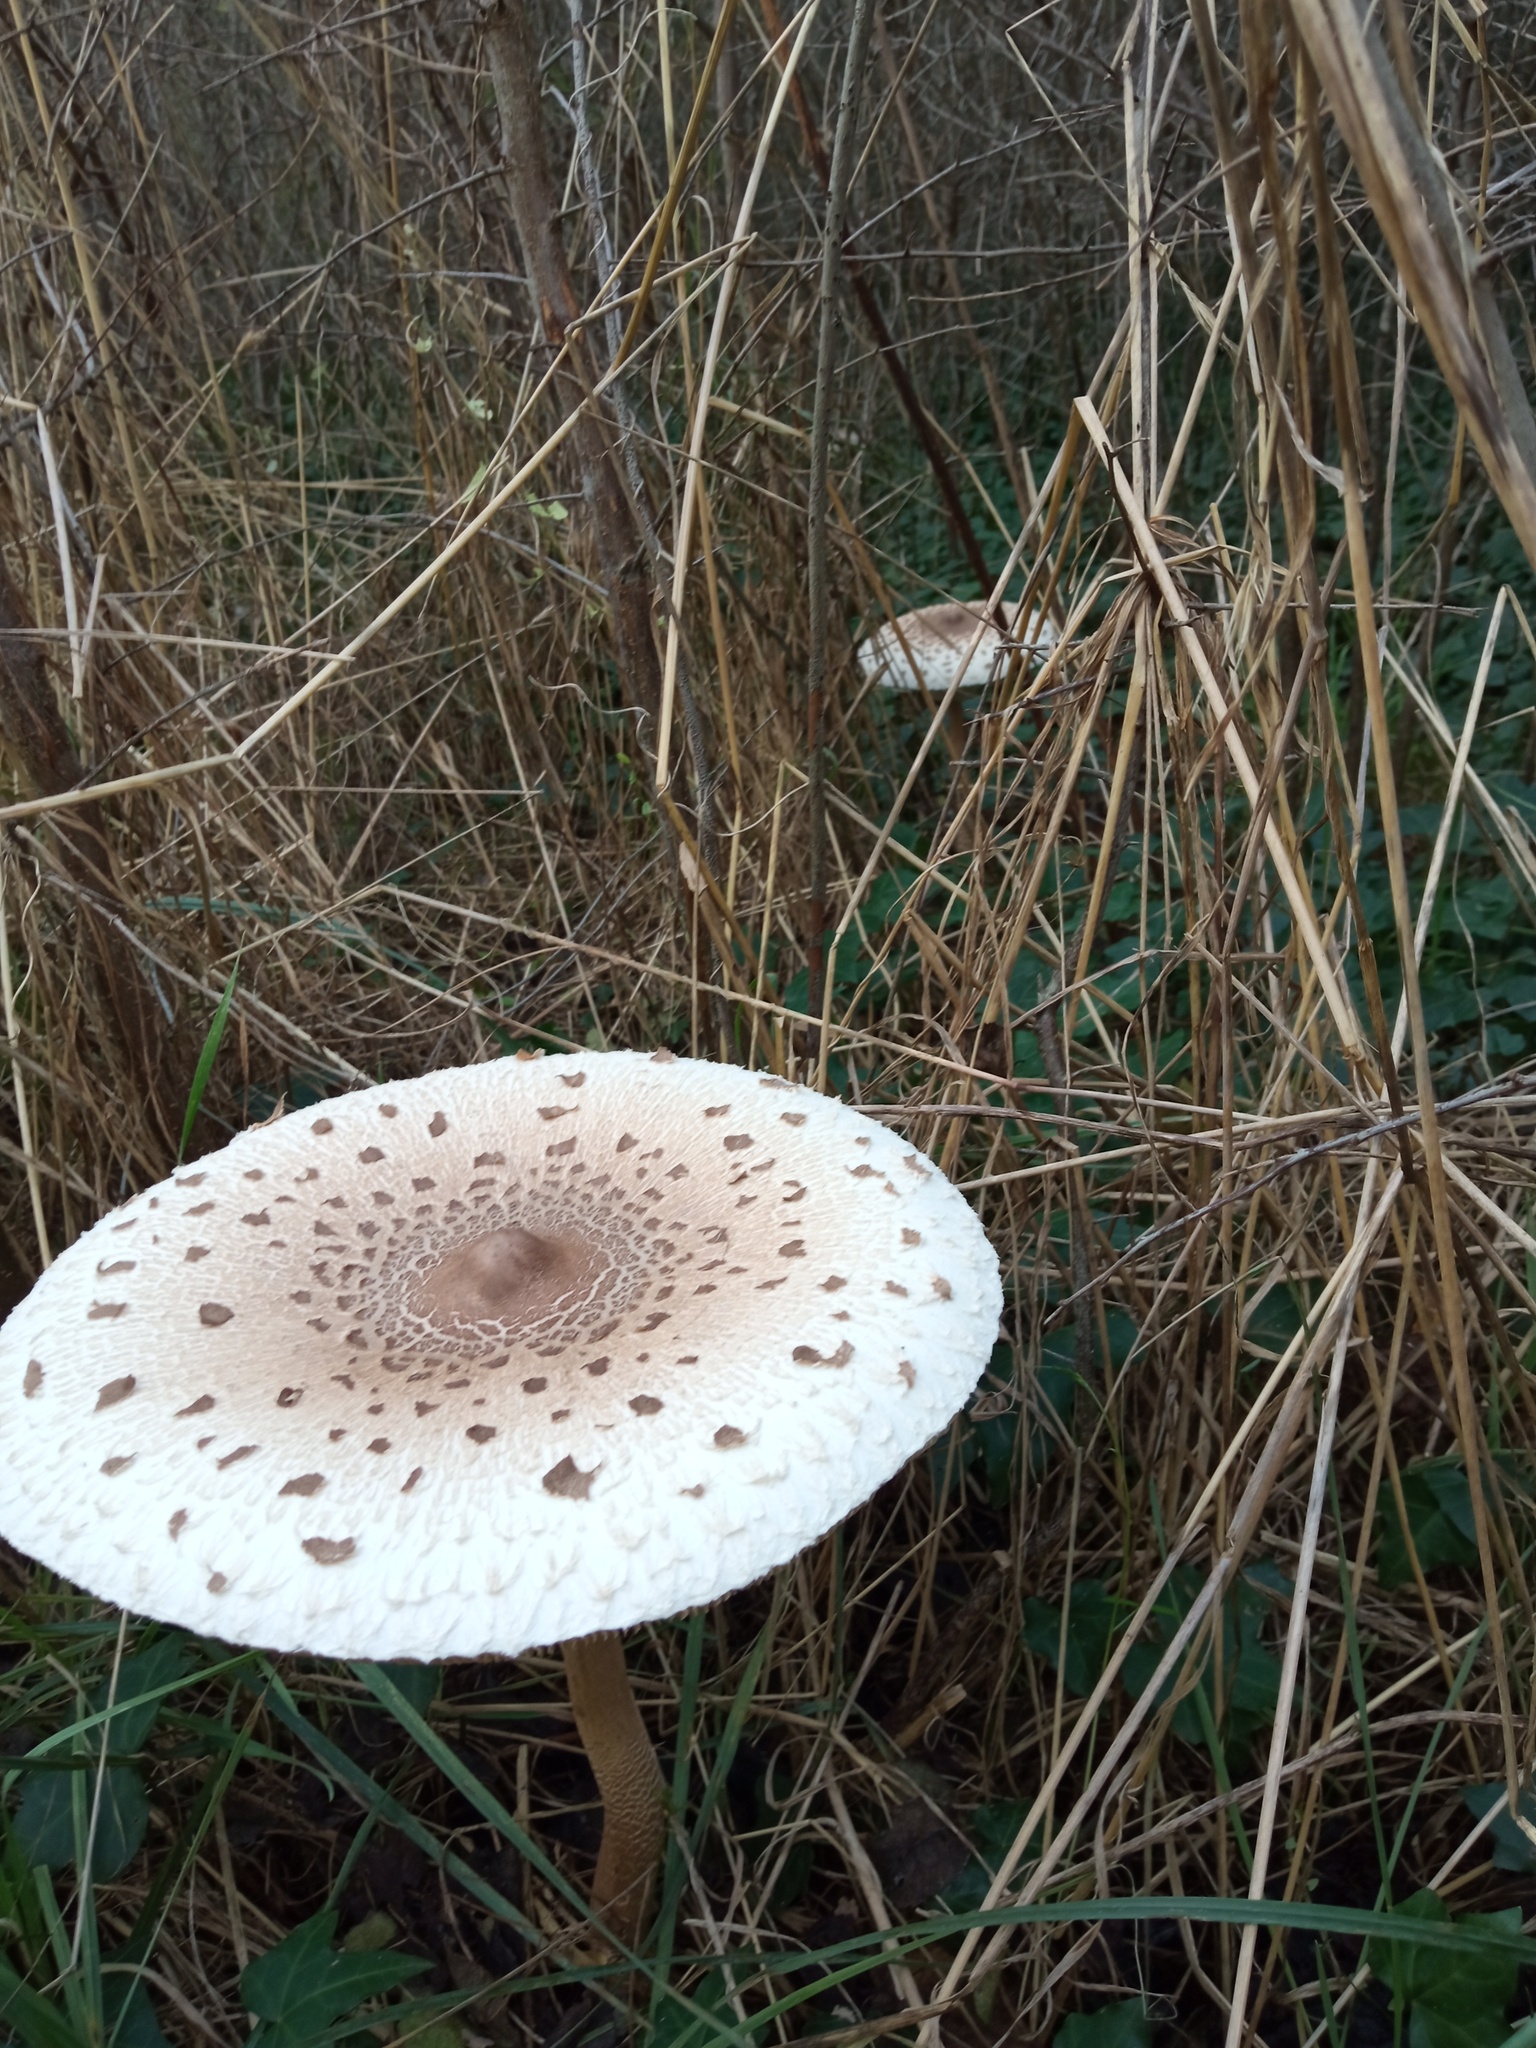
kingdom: Fungi
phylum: Basidiomycota
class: Agaricomycetes
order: Agaricales
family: Agaricaceae
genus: Macrolepiota
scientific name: Macrolepiota procera
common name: Parasol
